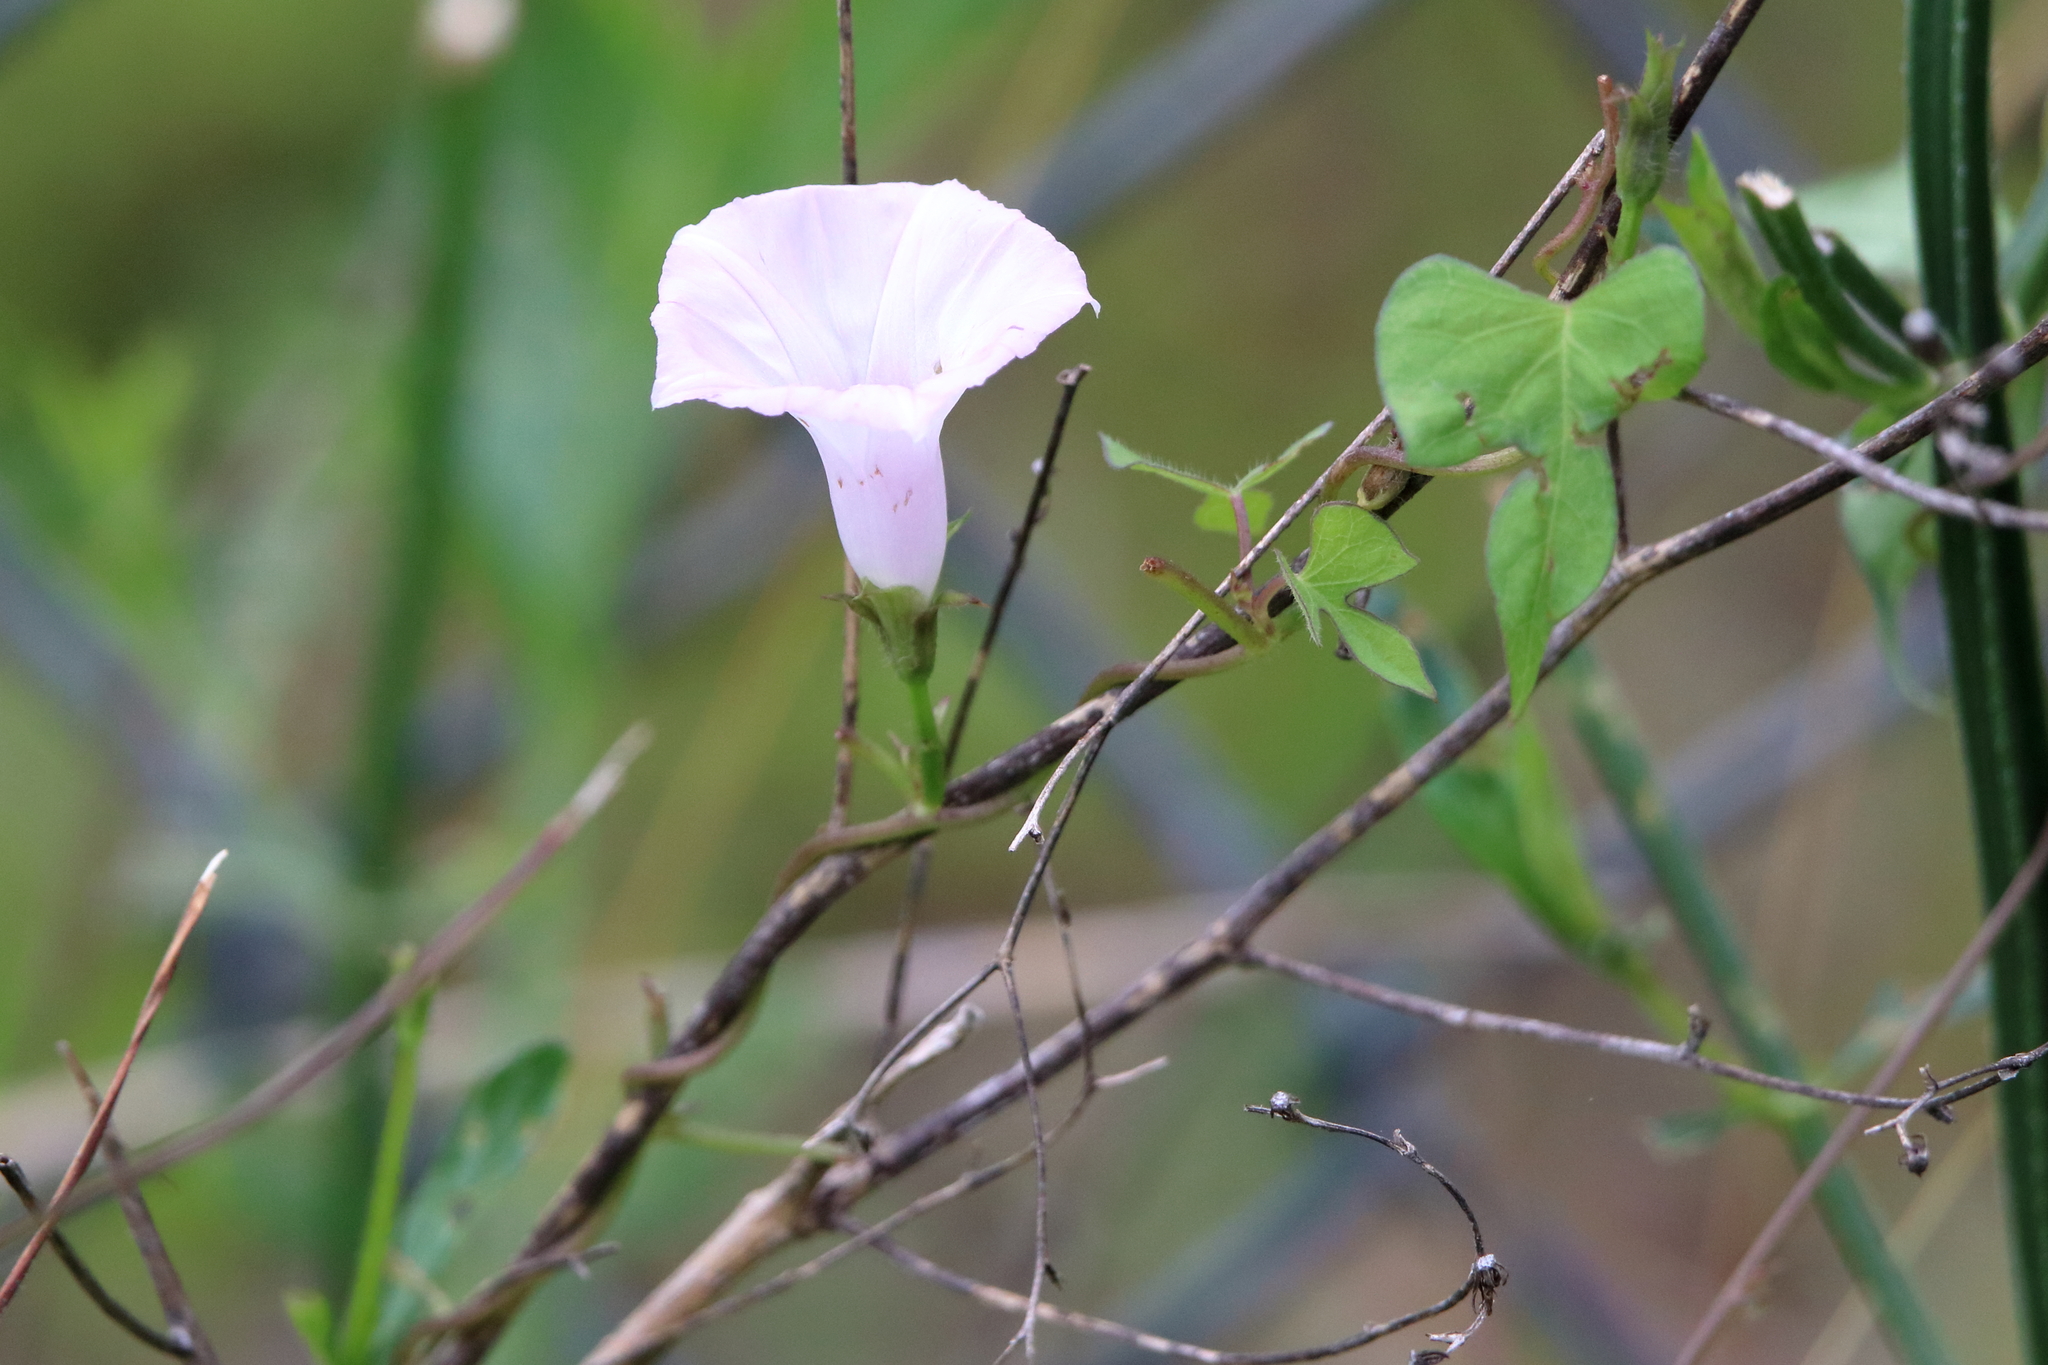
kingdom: Plantae
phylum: Tracheophyta
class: Magnoliopsida
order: Solanales
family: Convolvulaceae
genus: Ipomoea
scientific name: Ipomoea cordatotriloba
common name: Cotton morning glory
